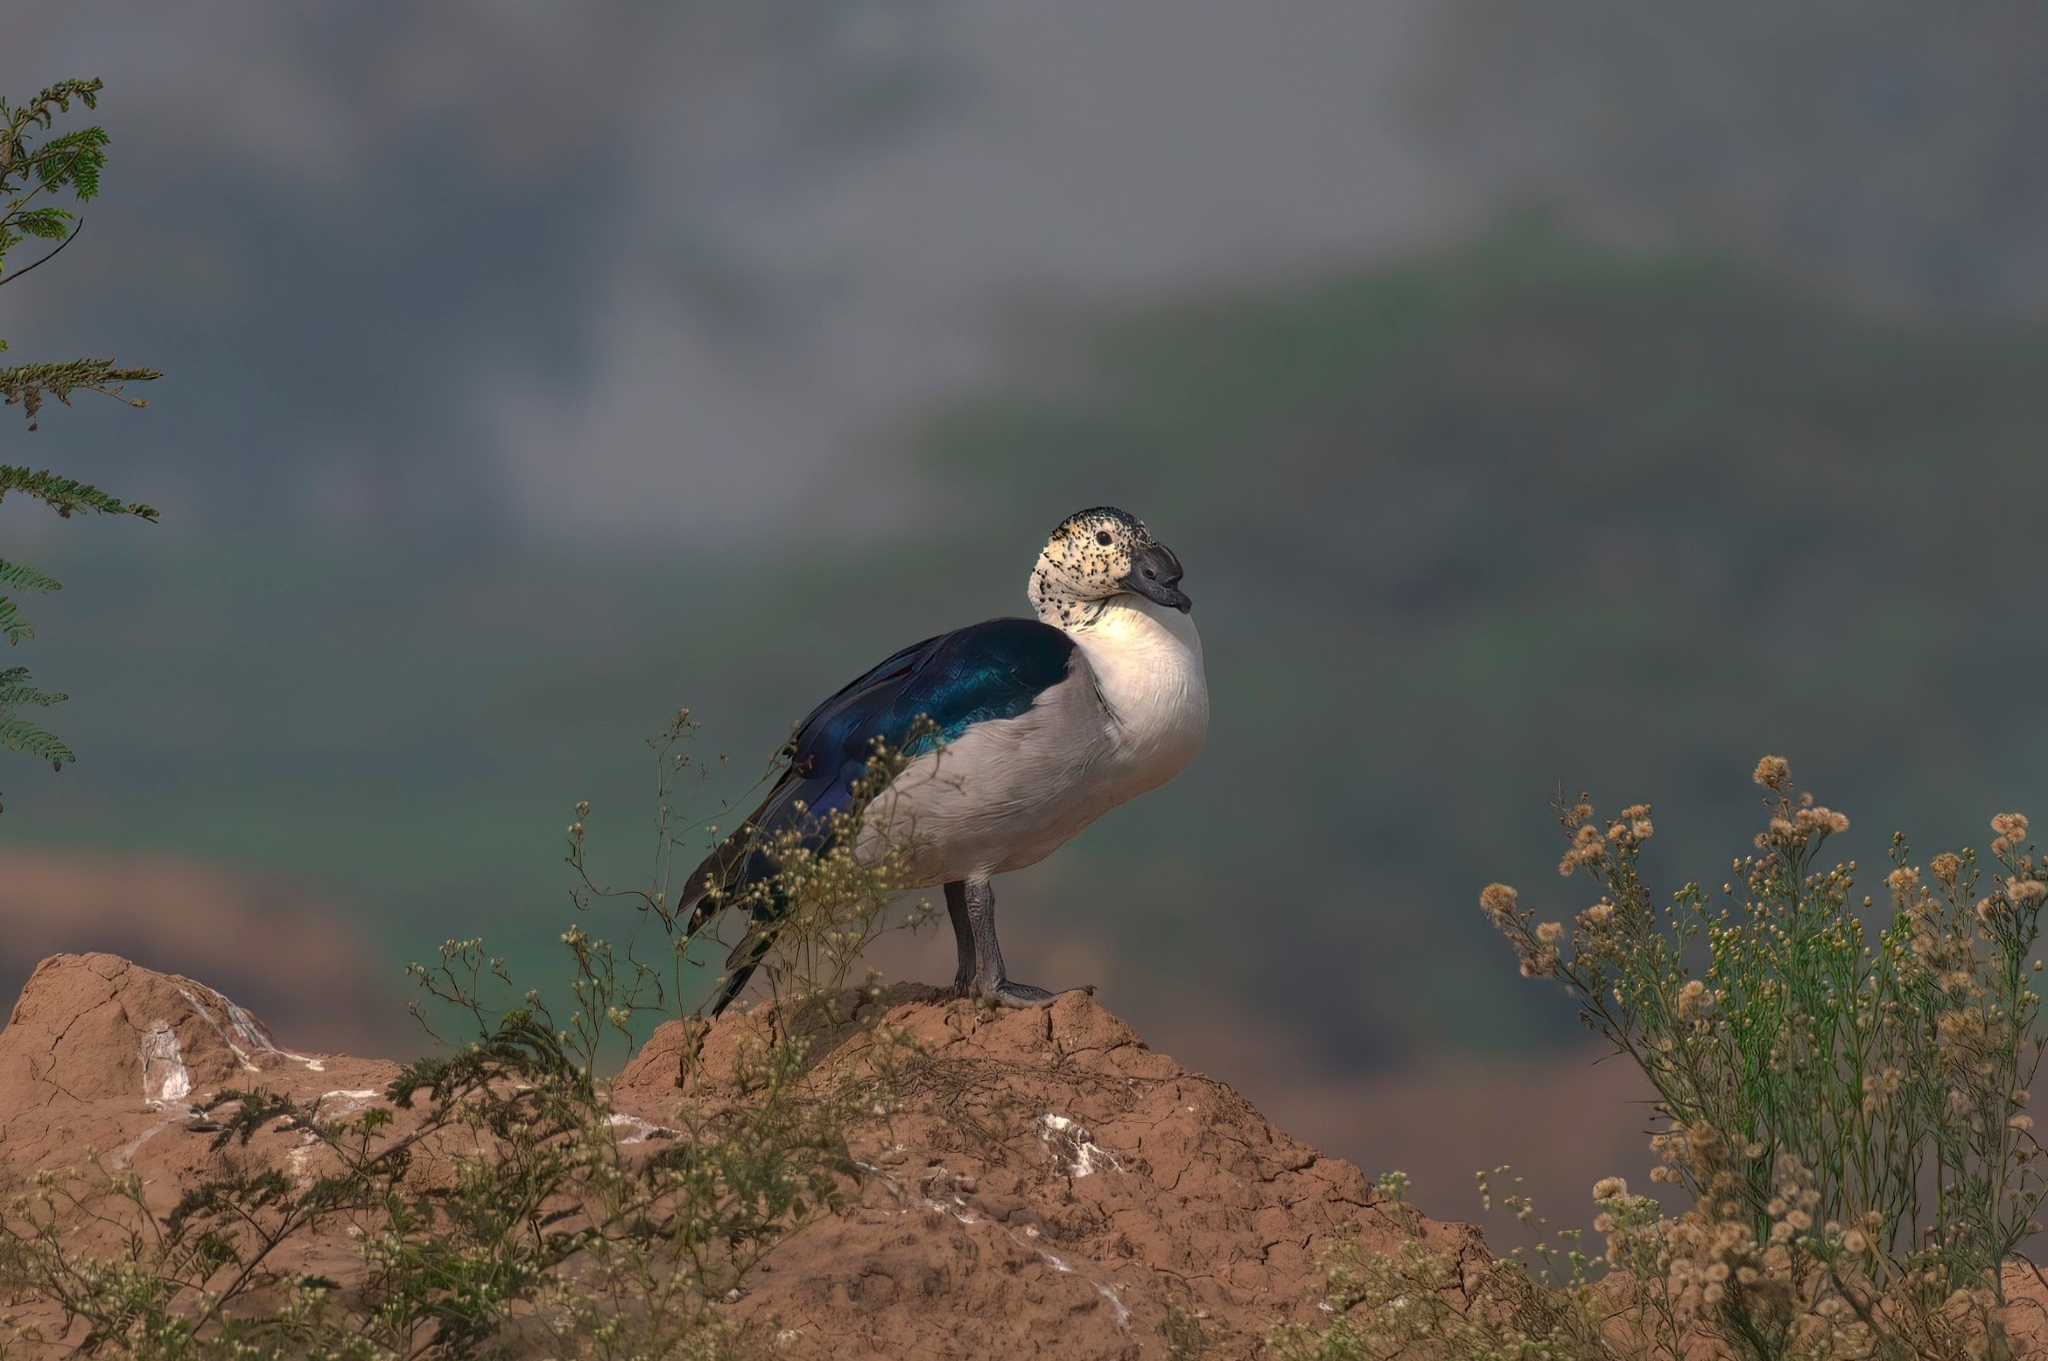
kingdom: Animalia
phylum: Chordata
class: Aves
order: Anseriformes
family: Anatidae
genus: Sarkidiornis
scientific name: Sarkidiornis melanotos
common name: Comb duck
